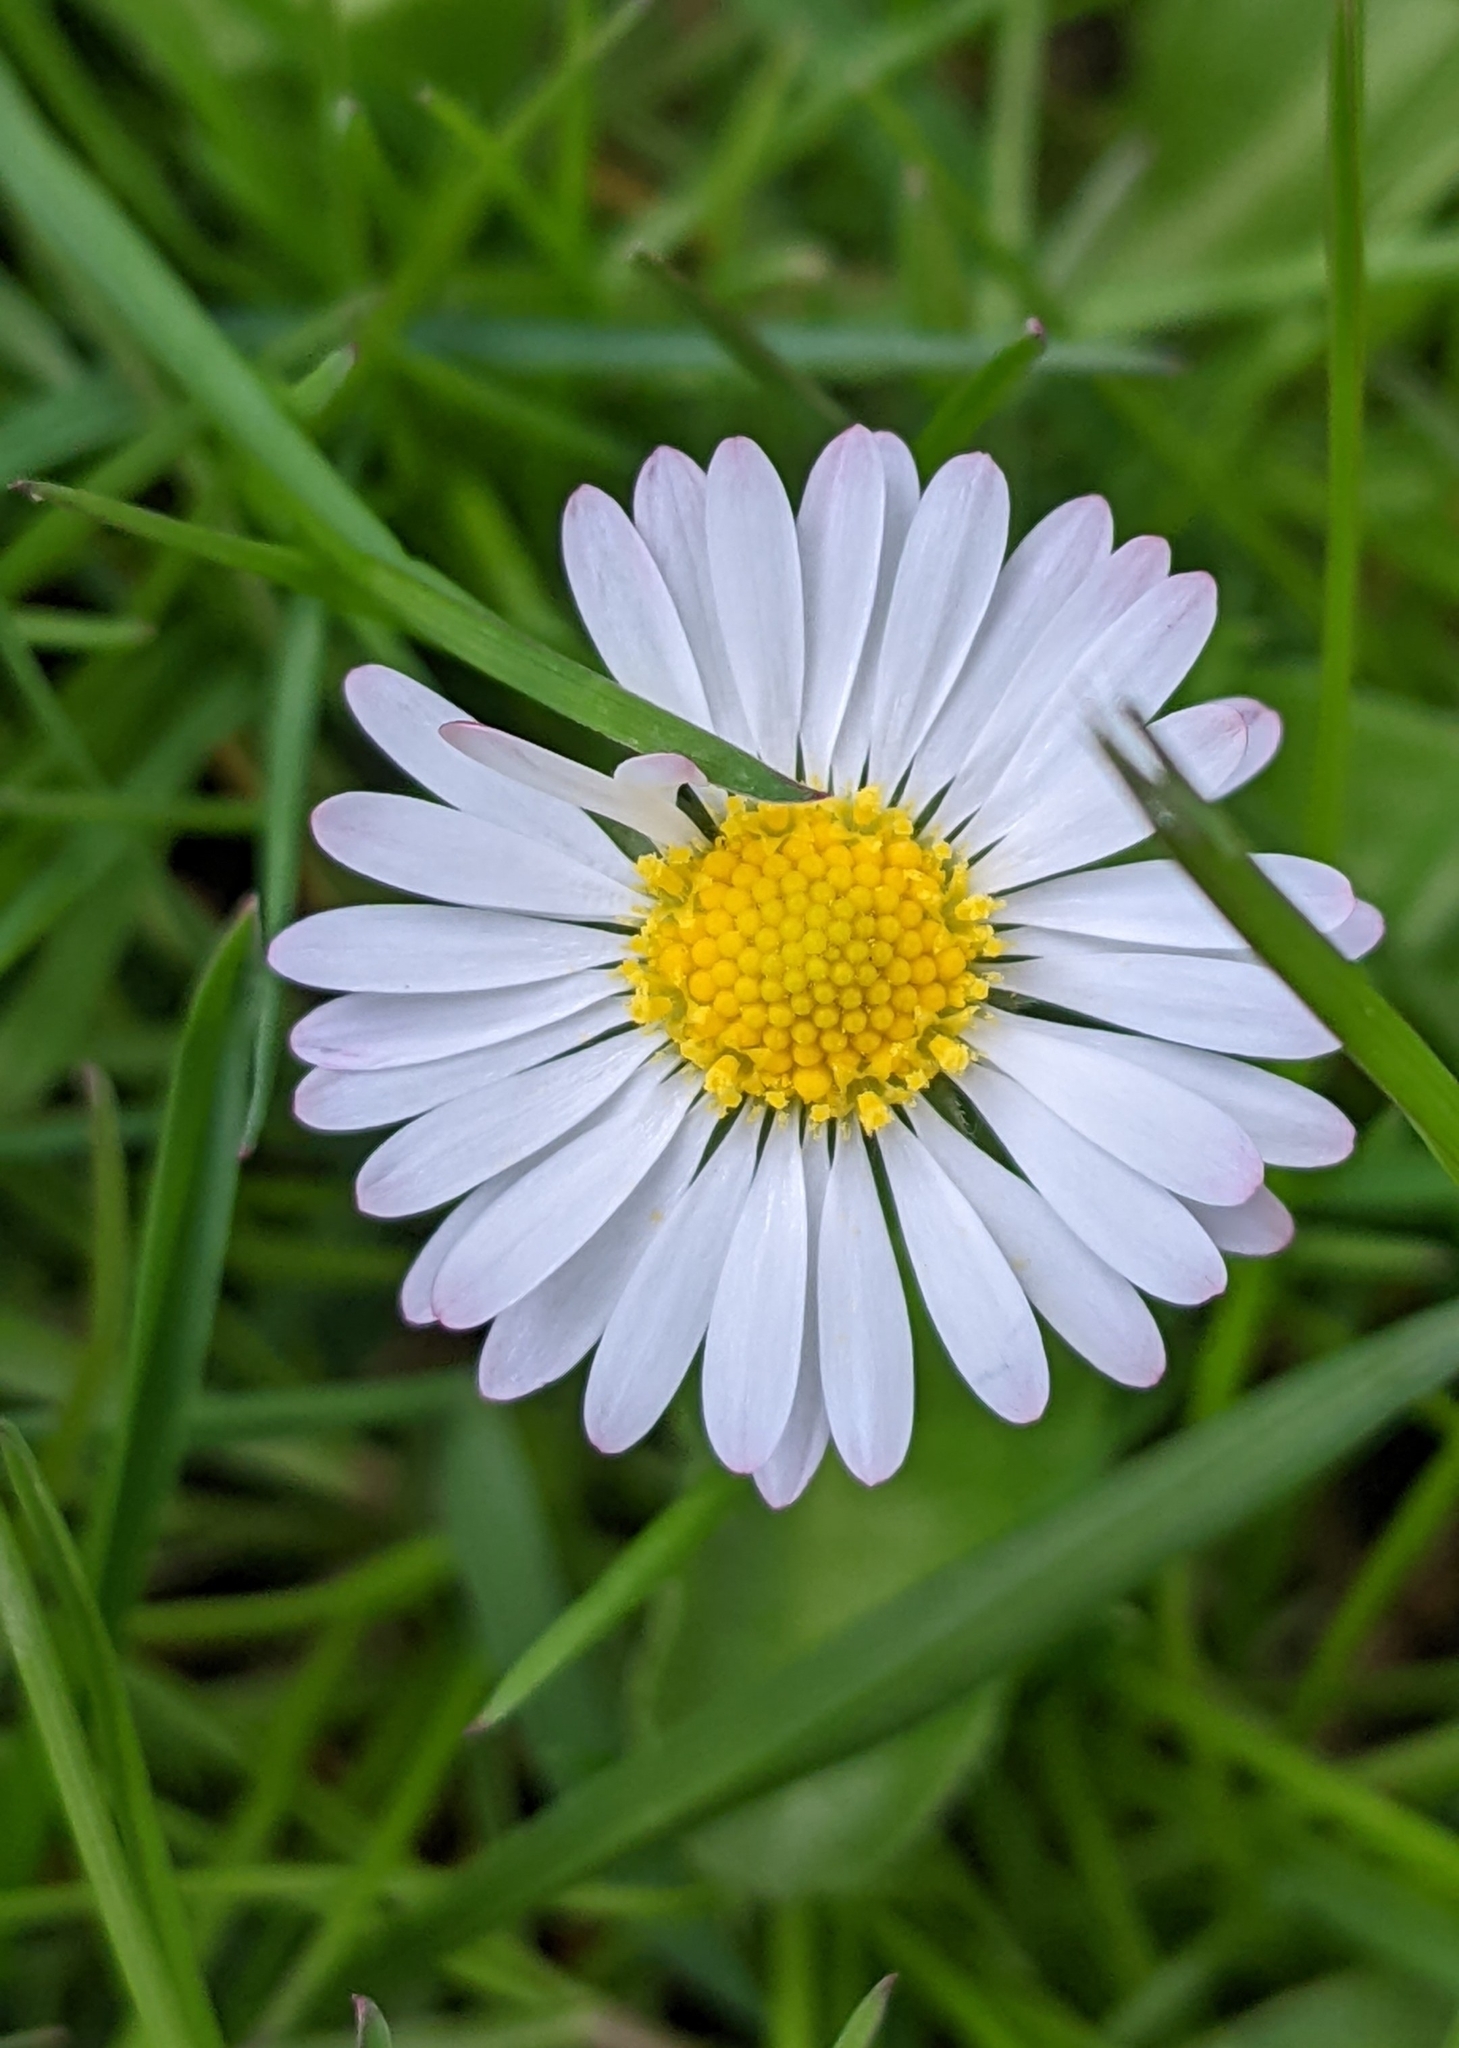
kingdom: Plantae
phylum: Tracheophyta
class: Magnoliopsida
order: Asterales
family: Asteraceae
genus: Bellis
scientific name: Bellis perennis
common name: Lawndaisy
